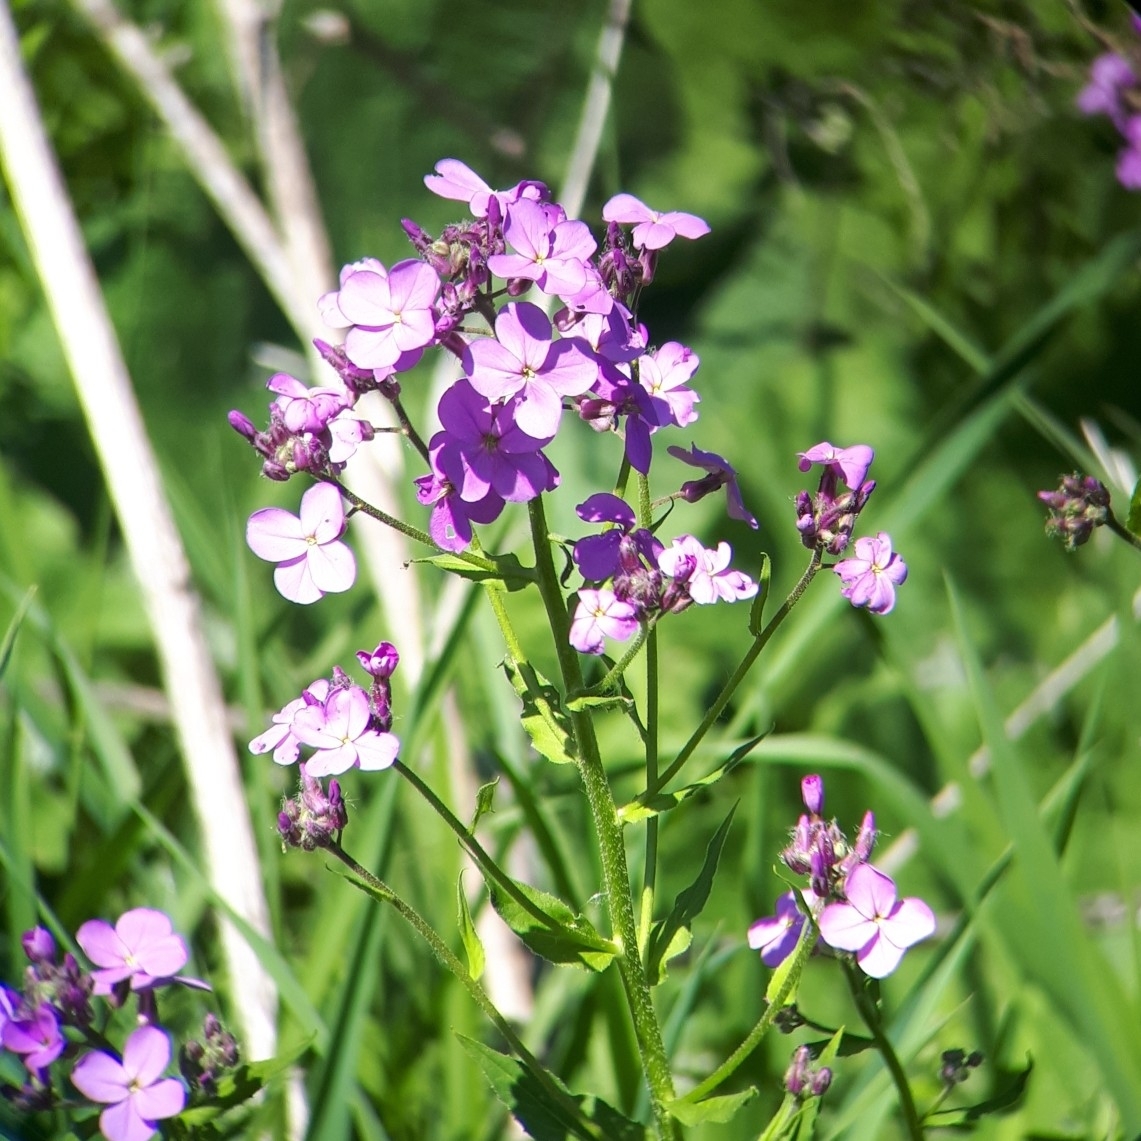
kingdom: Plantae
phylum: Tracheophyta
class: Magnoliopsida
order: Brassicales
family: Brassicaceae
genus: Hesperis
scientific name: Hesperis matronalis
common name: Dame's-violet
